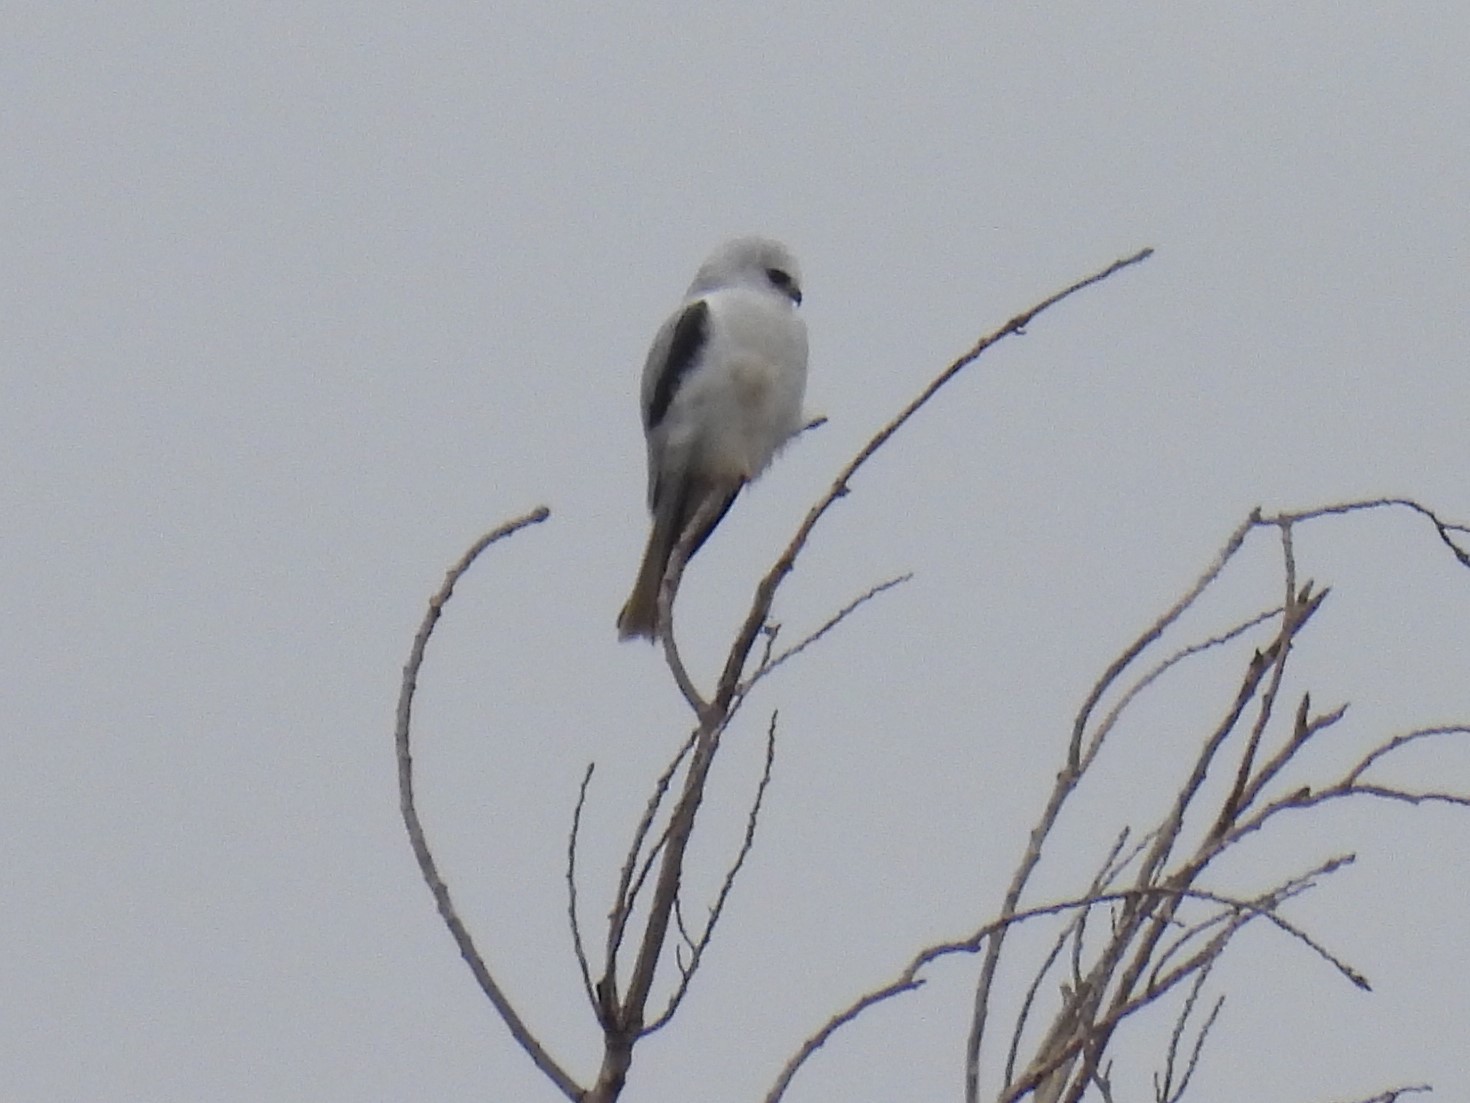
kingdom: Animalia
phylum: Chordata
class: Aves
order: Accipitriformes
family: Accipitridae
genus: Elanus
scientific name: Elanus leucurus
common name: White-tailed kite
